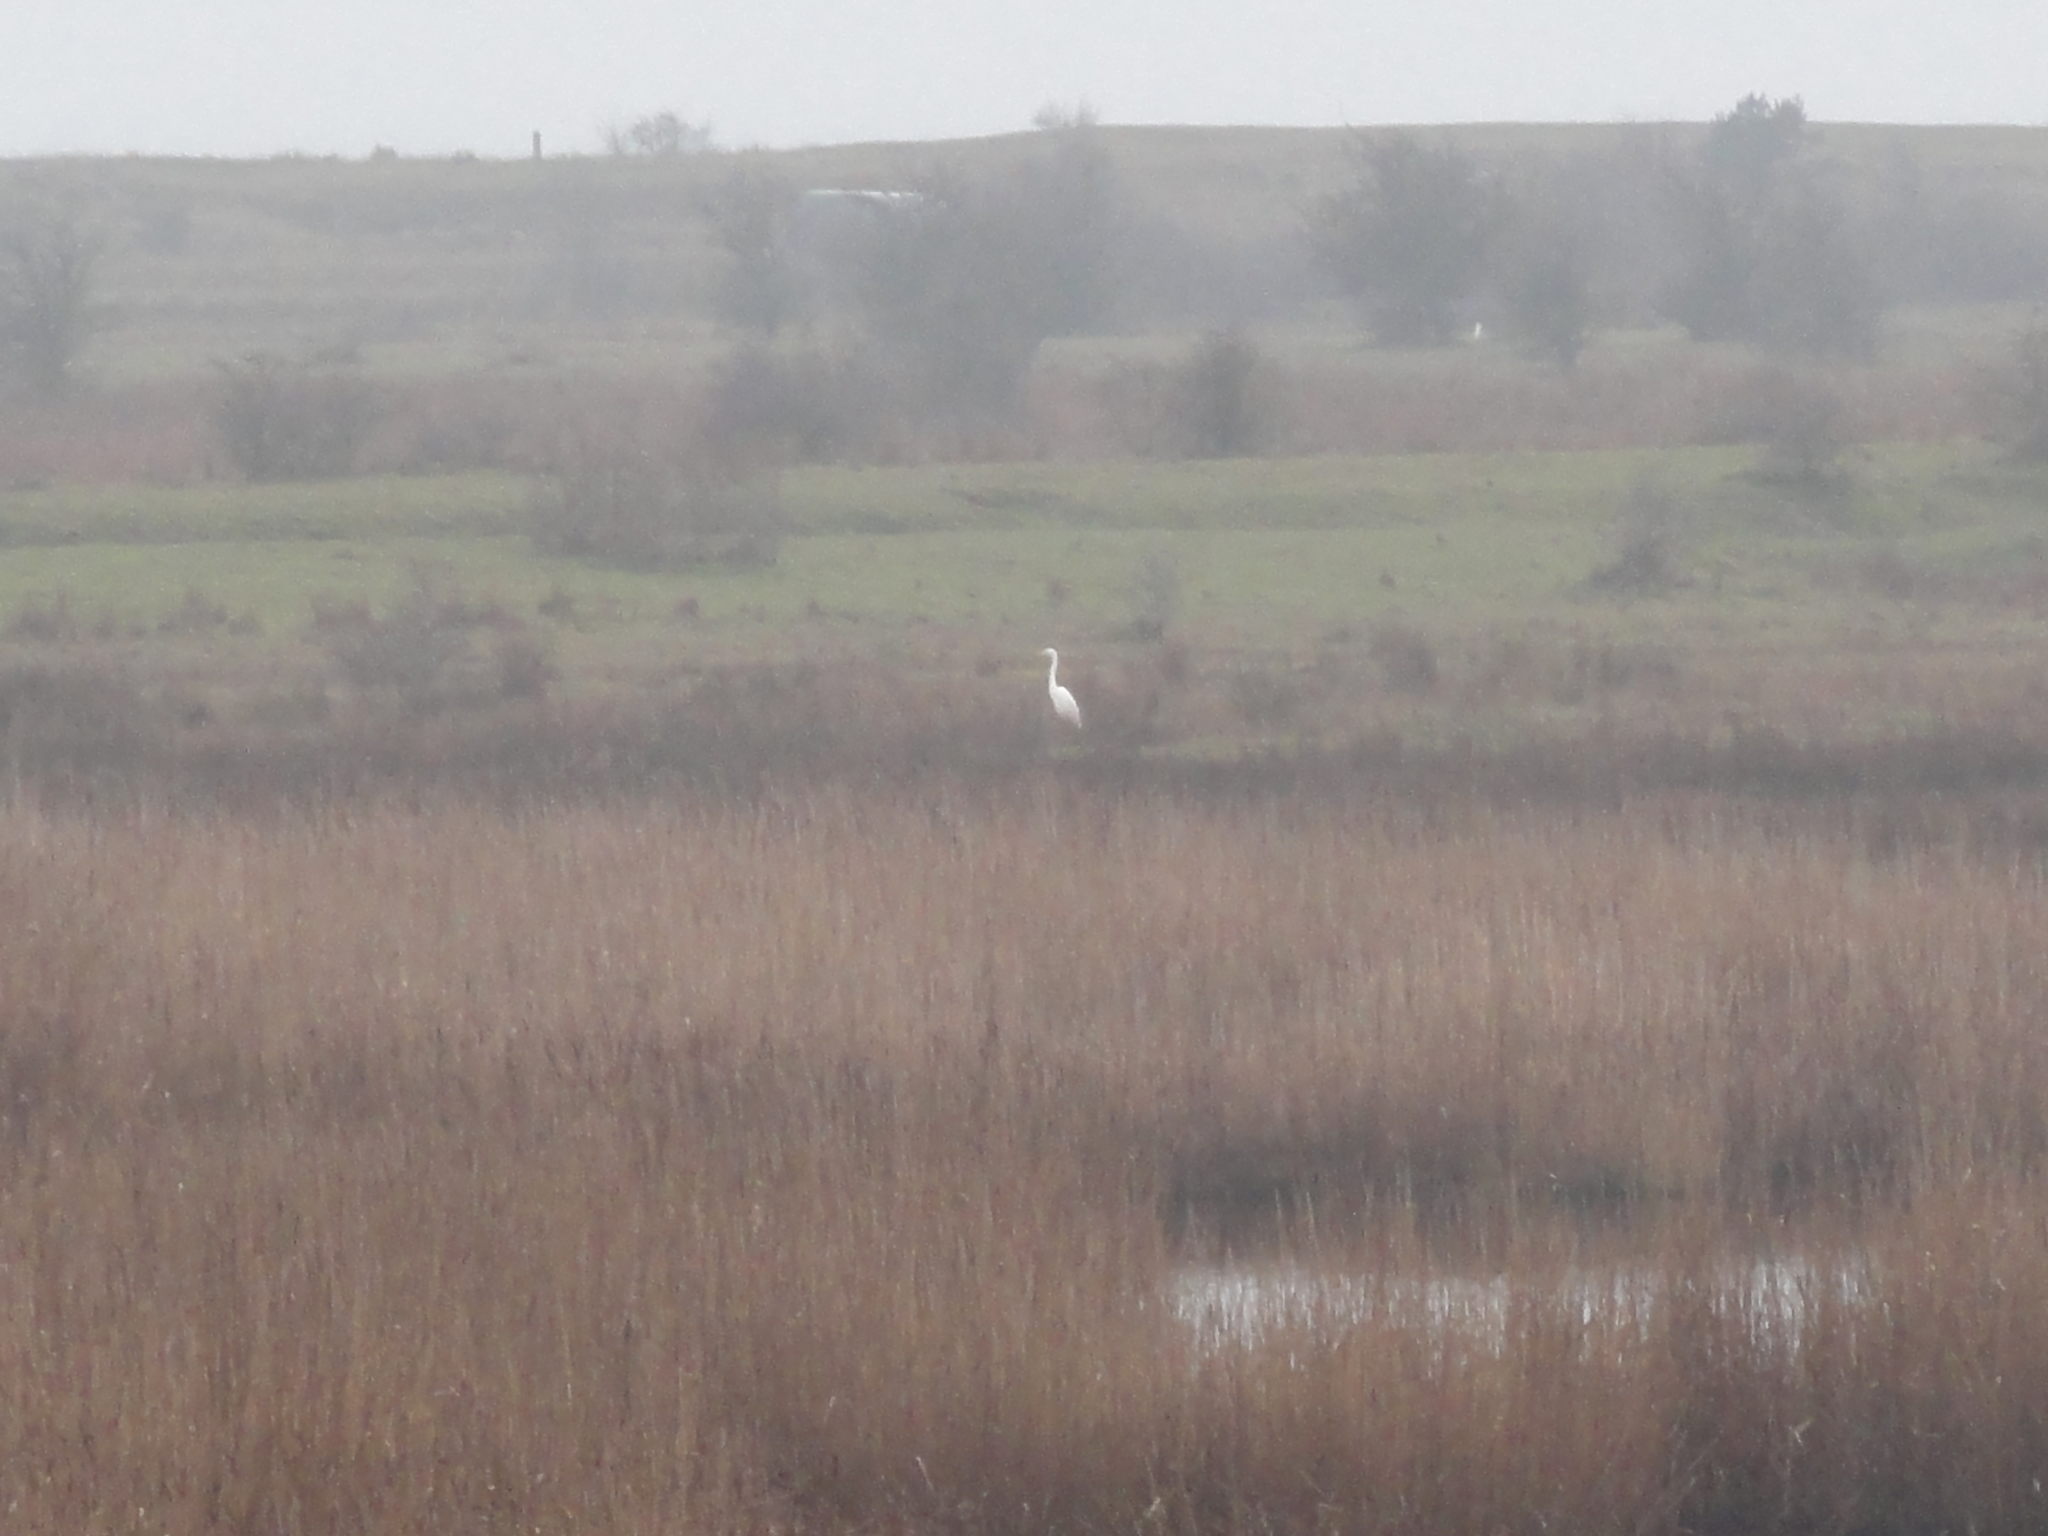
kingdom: Animalia
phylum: Chordata
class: Aves
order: Pelecaniformes
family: Ardeidae
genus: Ardea
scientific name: Ardea alba
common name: Great egret
